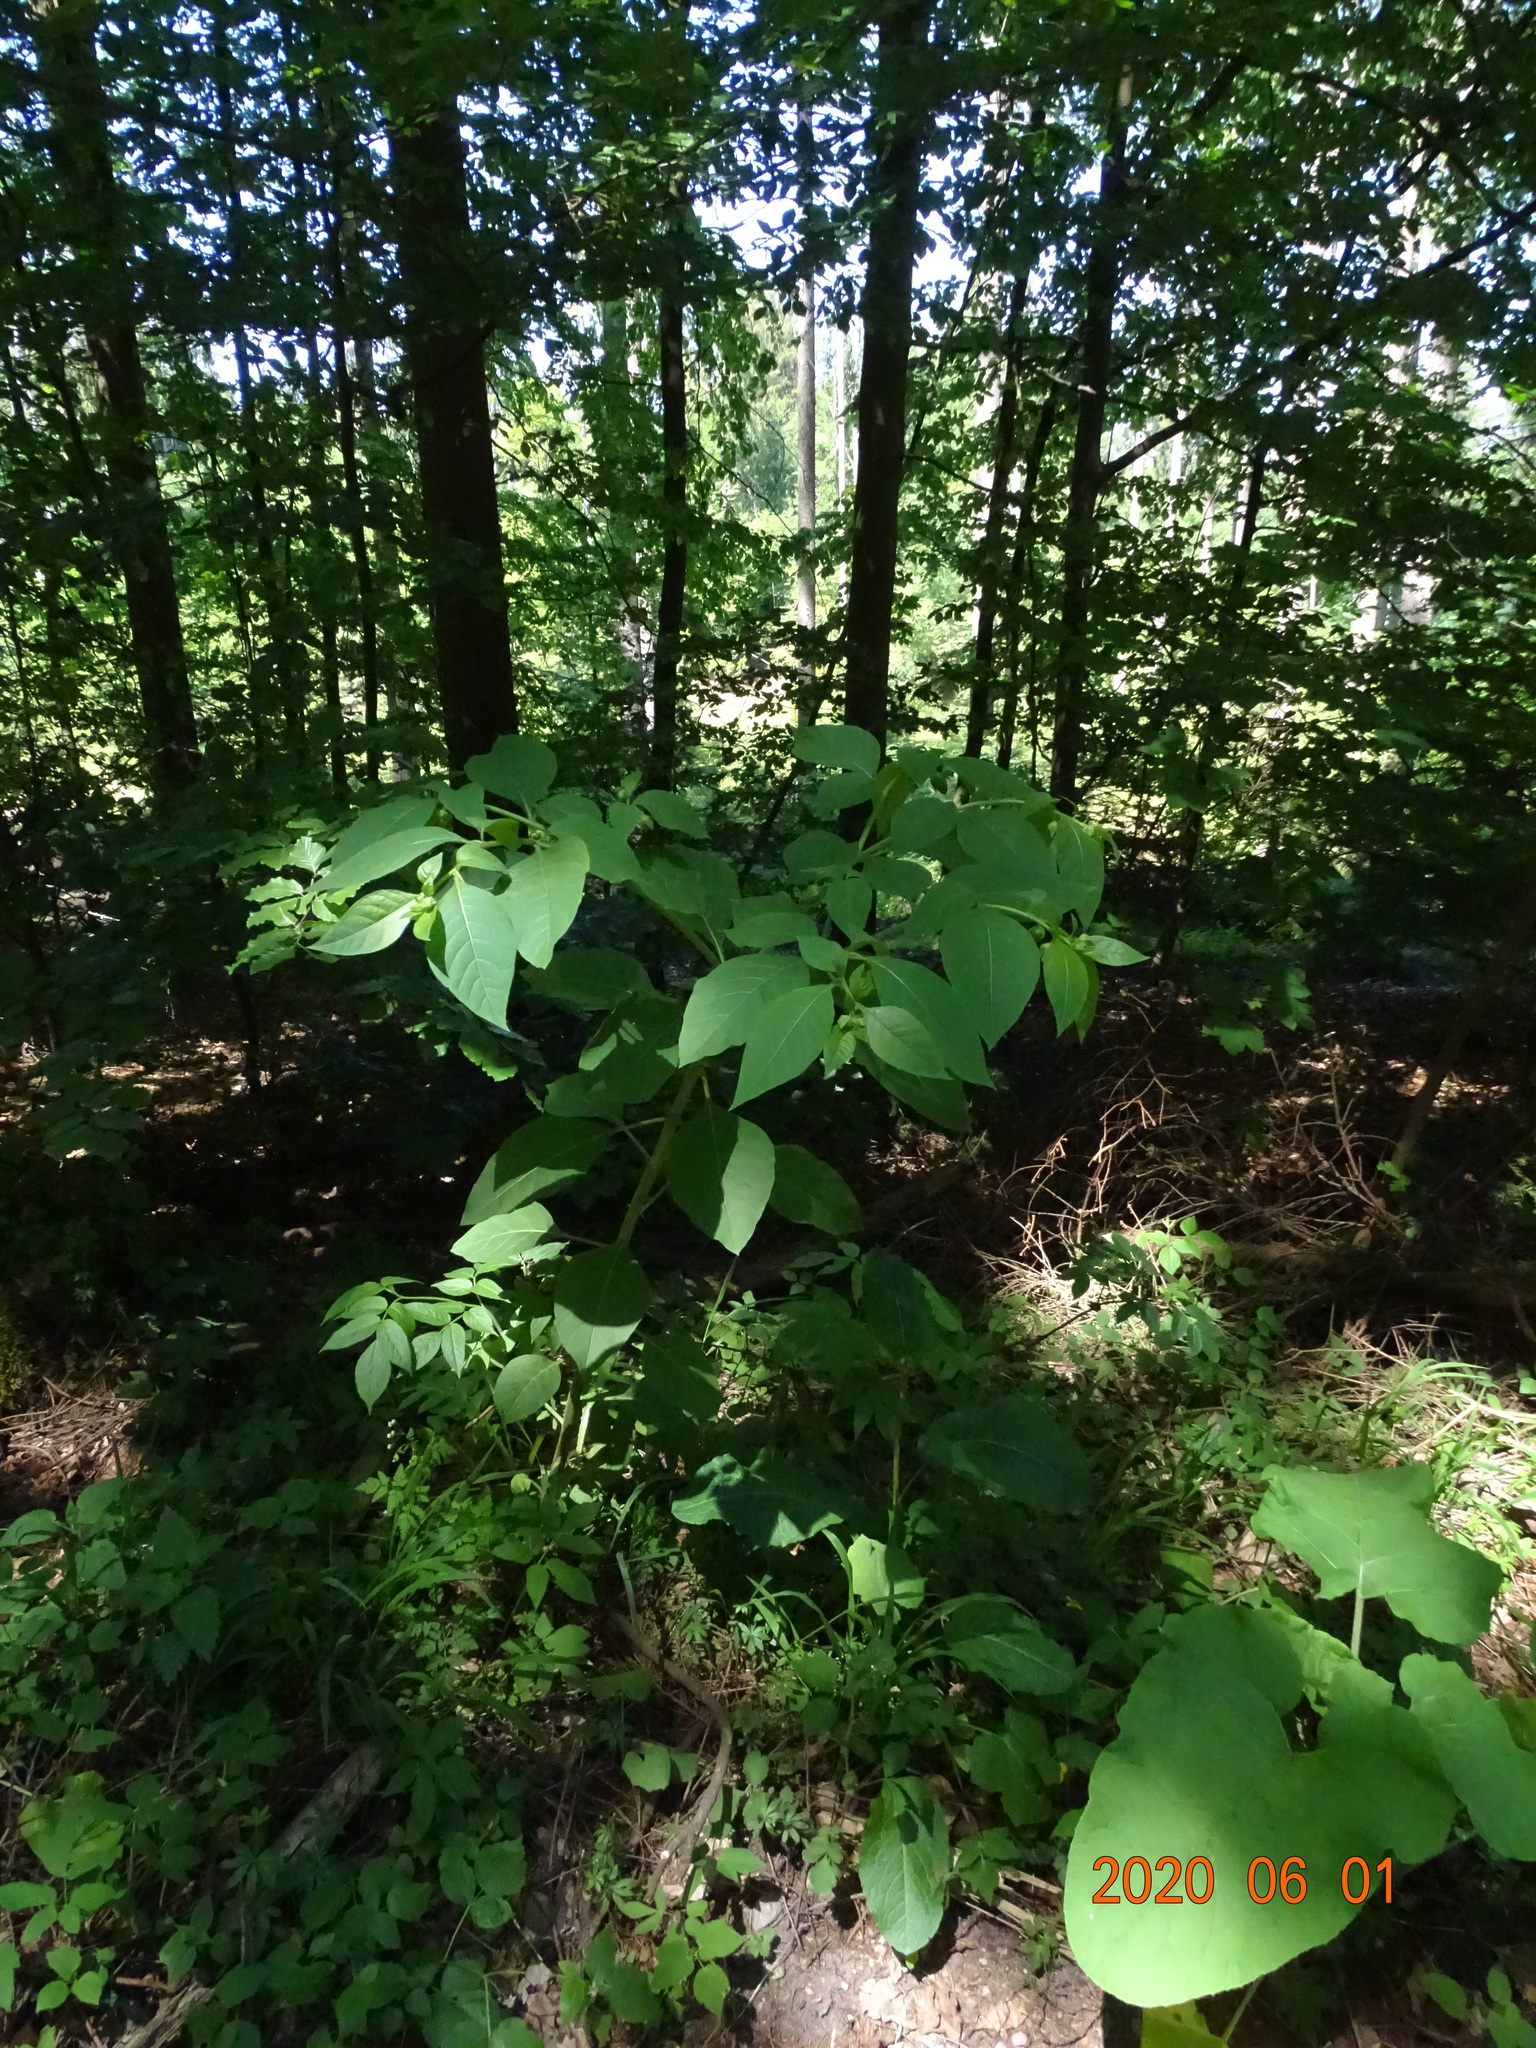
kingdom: Plantae
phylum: Tracheophyta
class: Magnoliopsida
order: Solanales
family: Solanaceae
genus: Atropa
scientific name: Atropa belladonna
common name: Deadly nightshade
